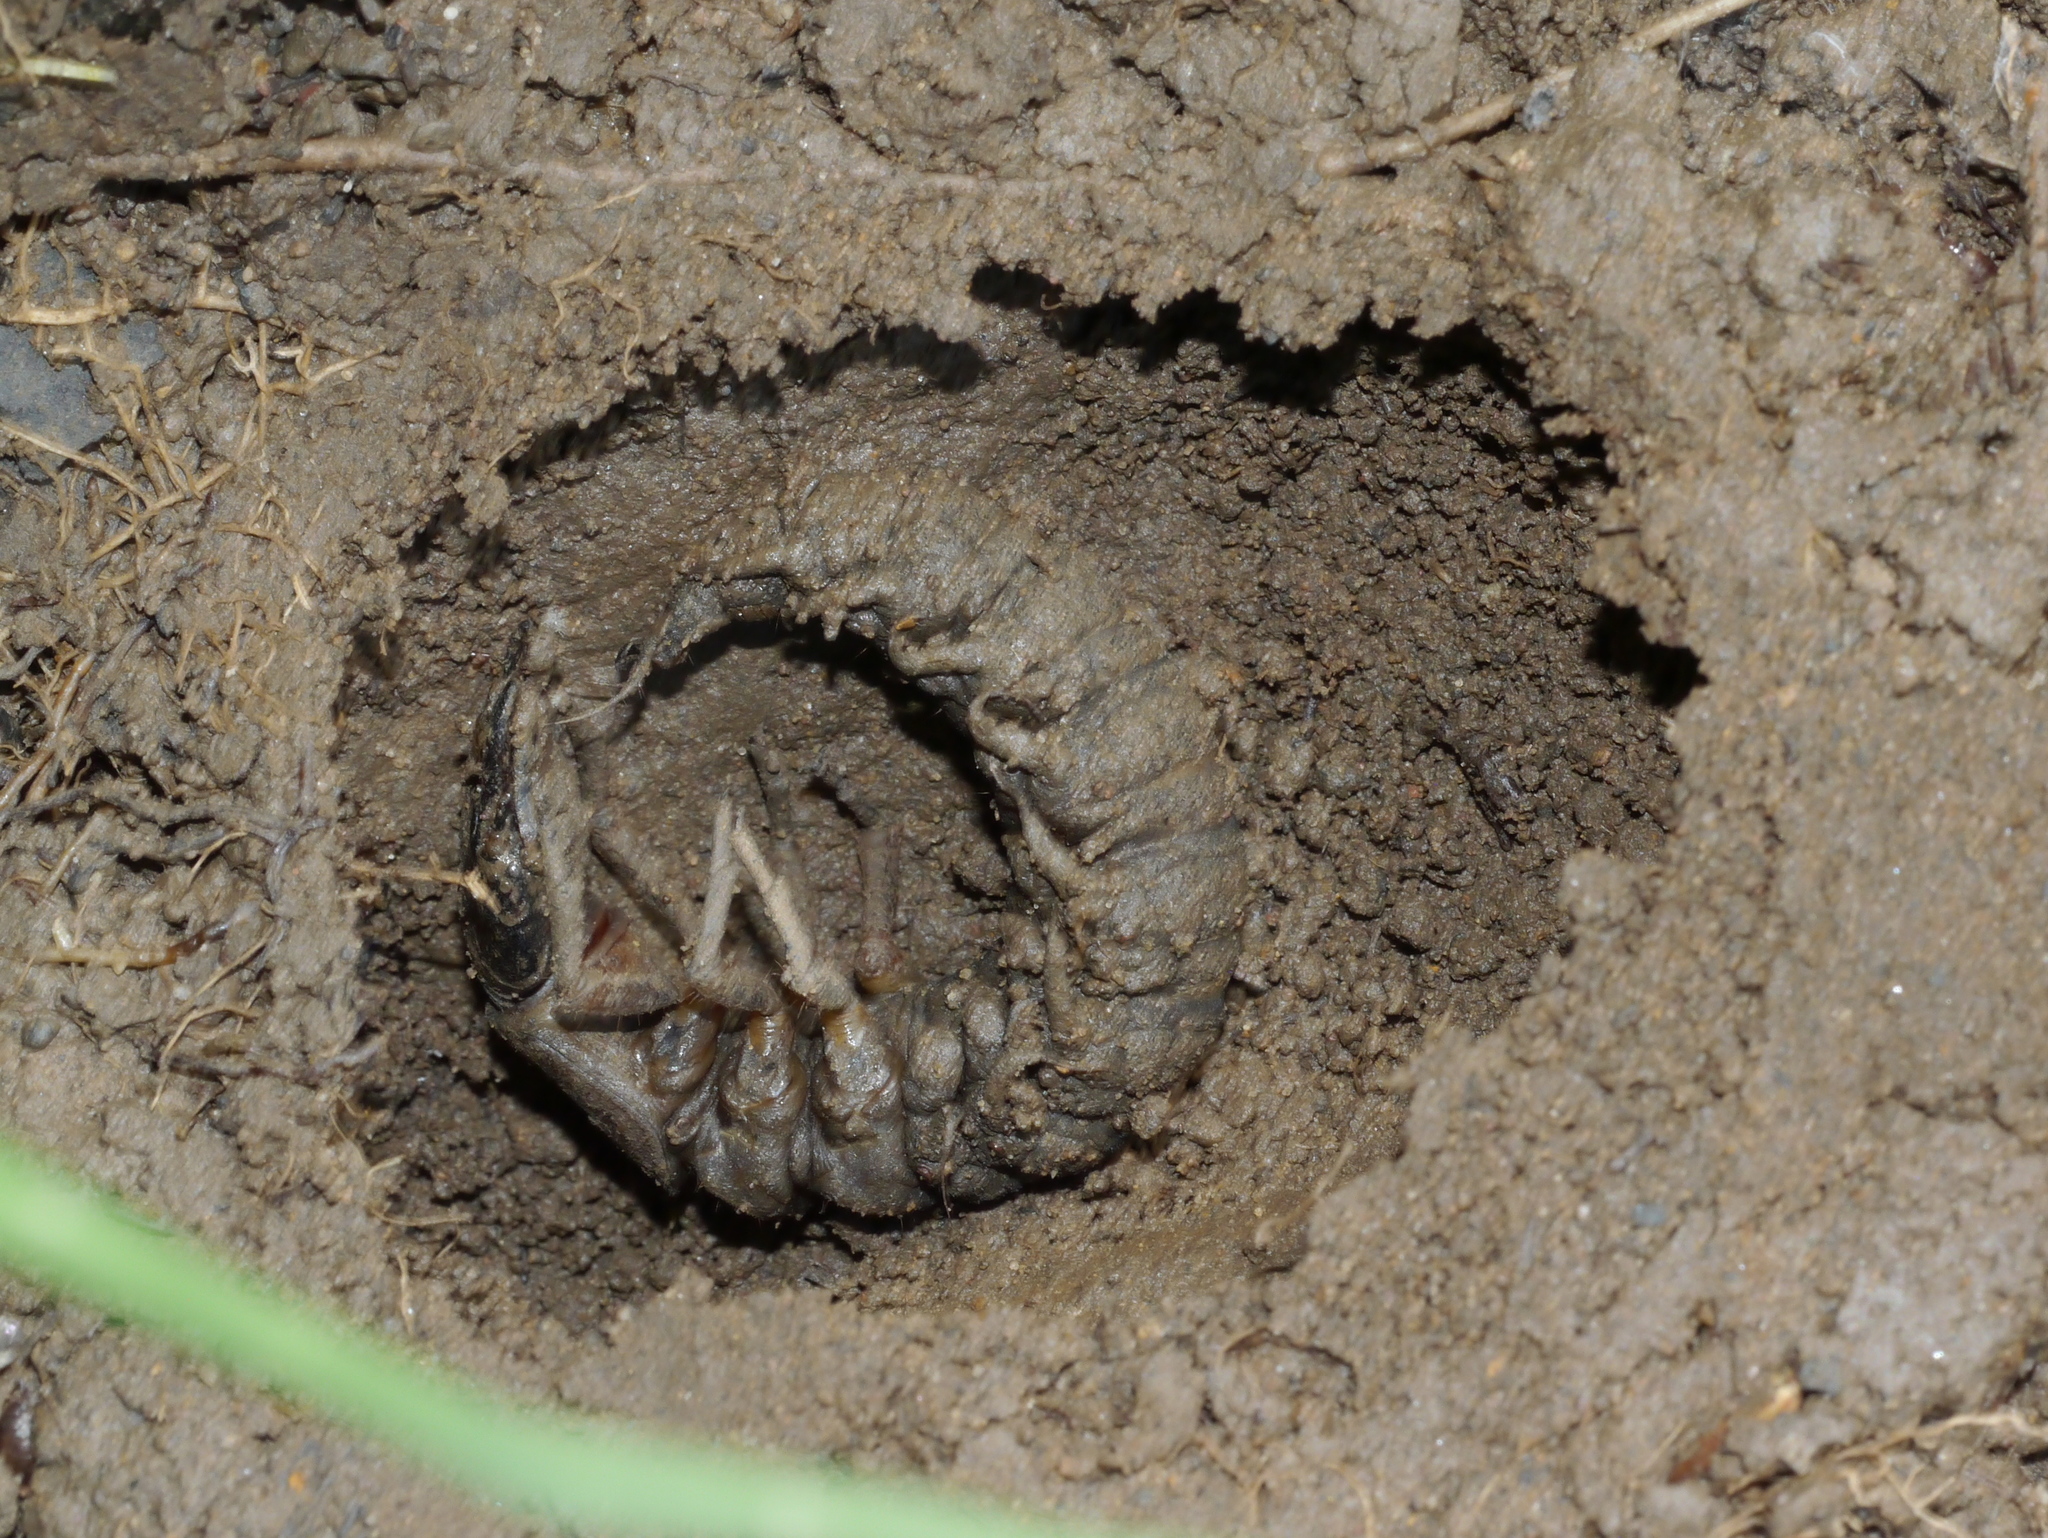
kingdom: Animalia
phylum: Arthropoda
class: Insecta
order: Megaloptera
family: Corydalidae
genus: Corydalus
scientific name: Corydalus cornutus
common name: Dobsonfly
